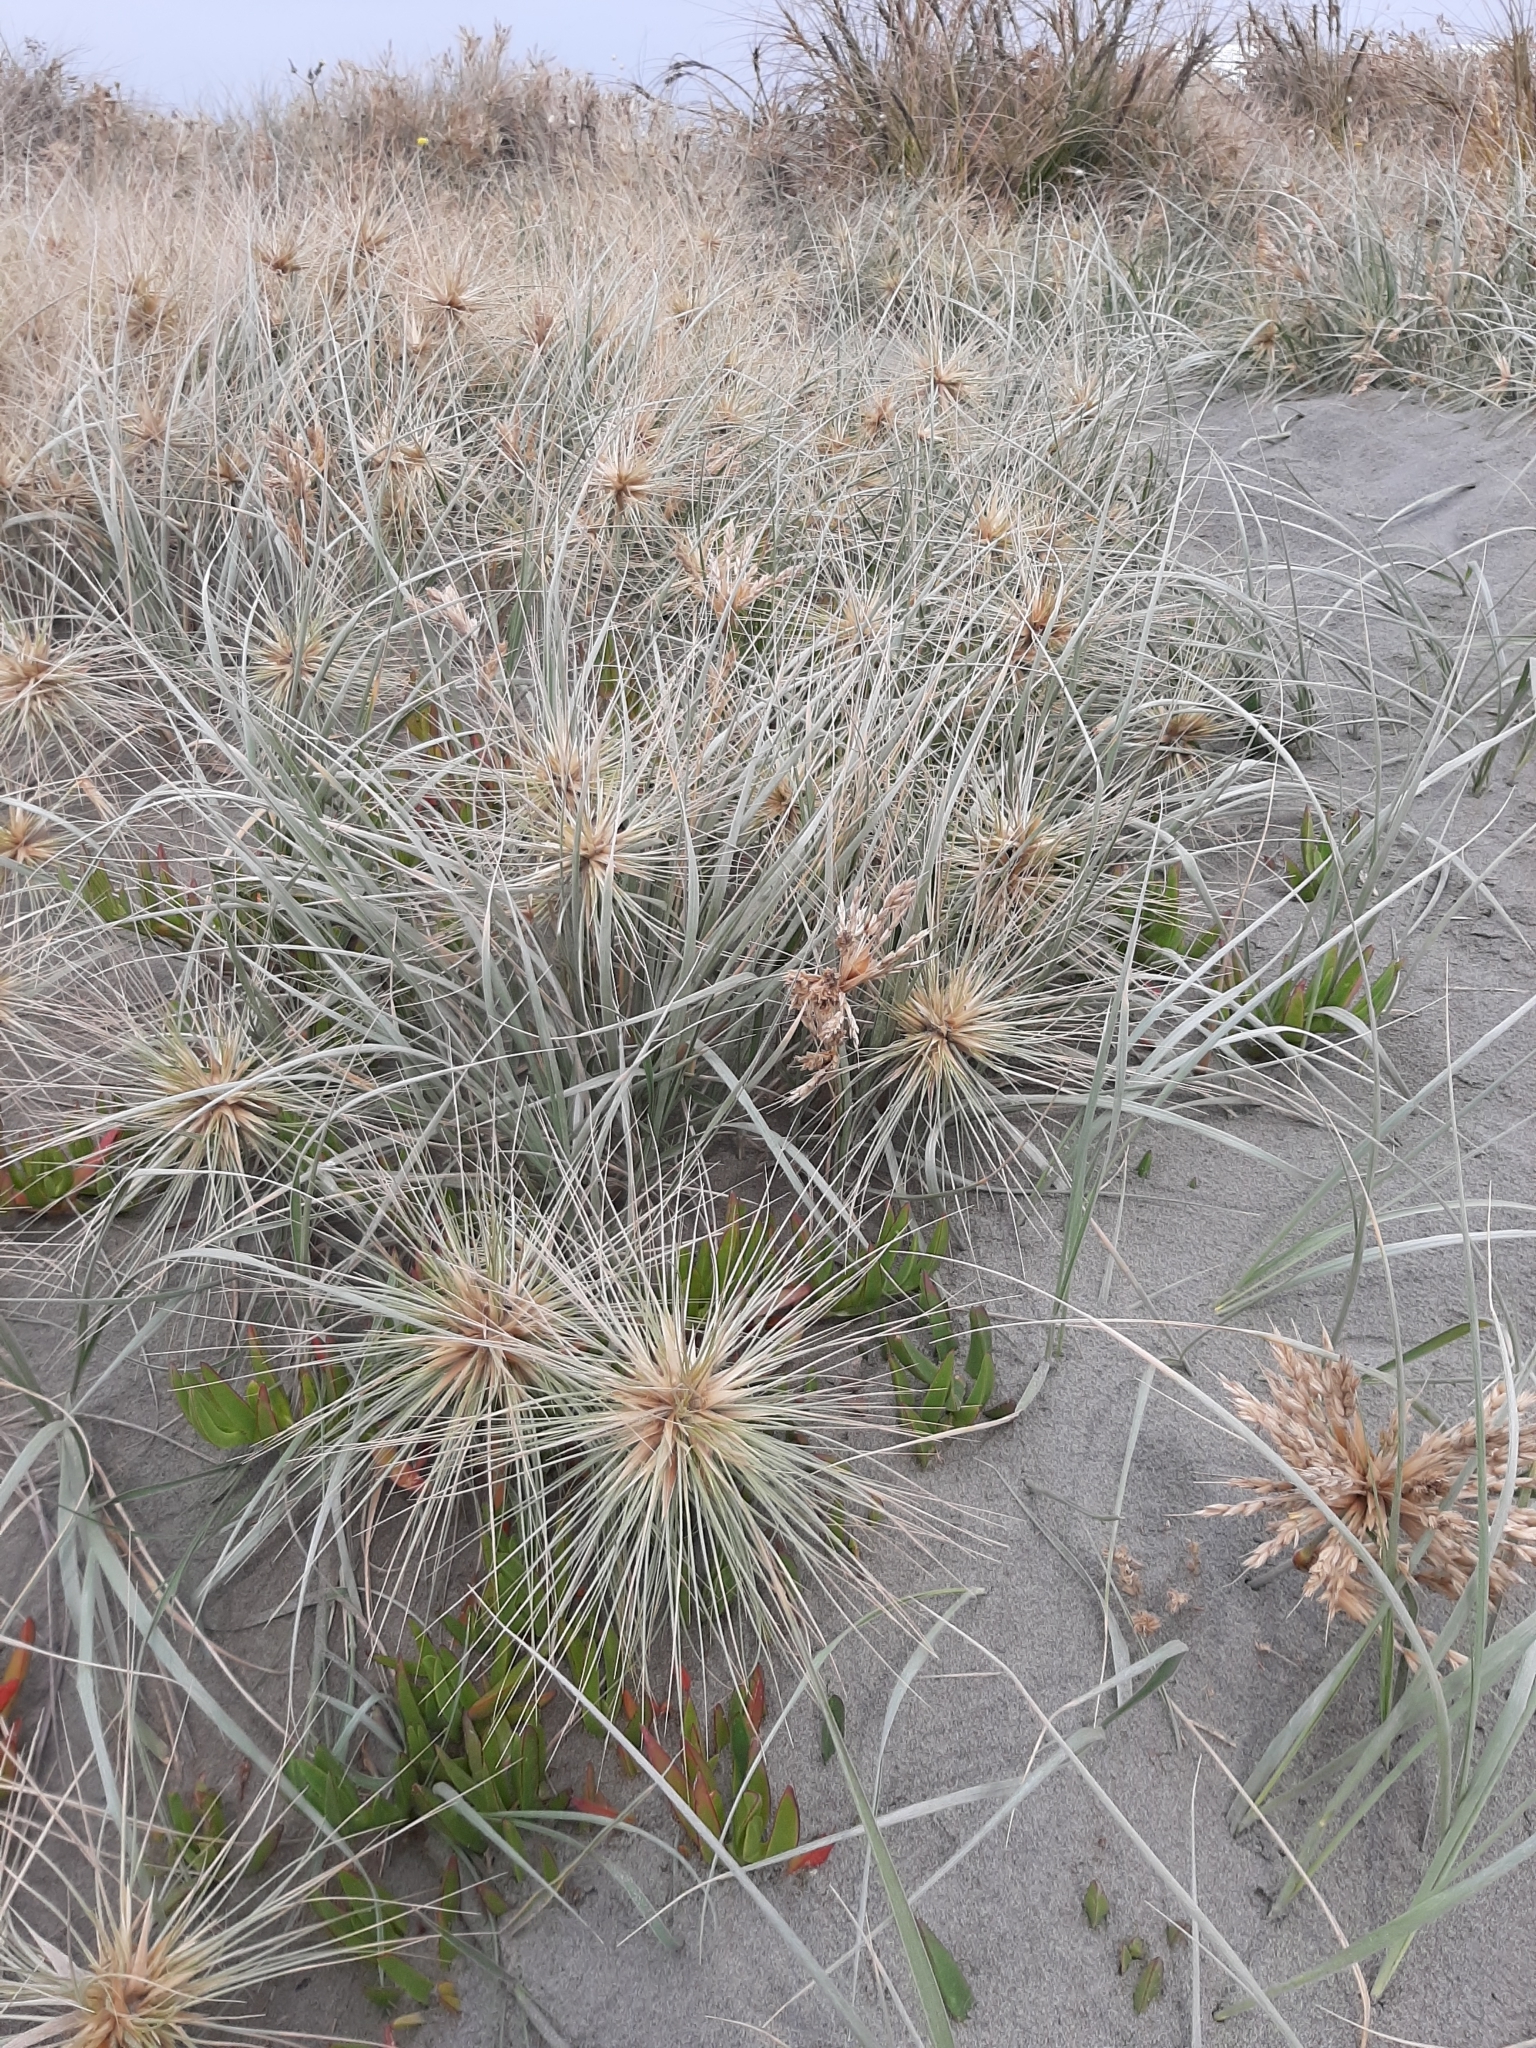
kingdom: Plantae
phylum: Tracheophyta
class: Liliopsida
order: Poales
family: Poaceae
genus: Spinifex
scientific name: Spinifex sericeus
